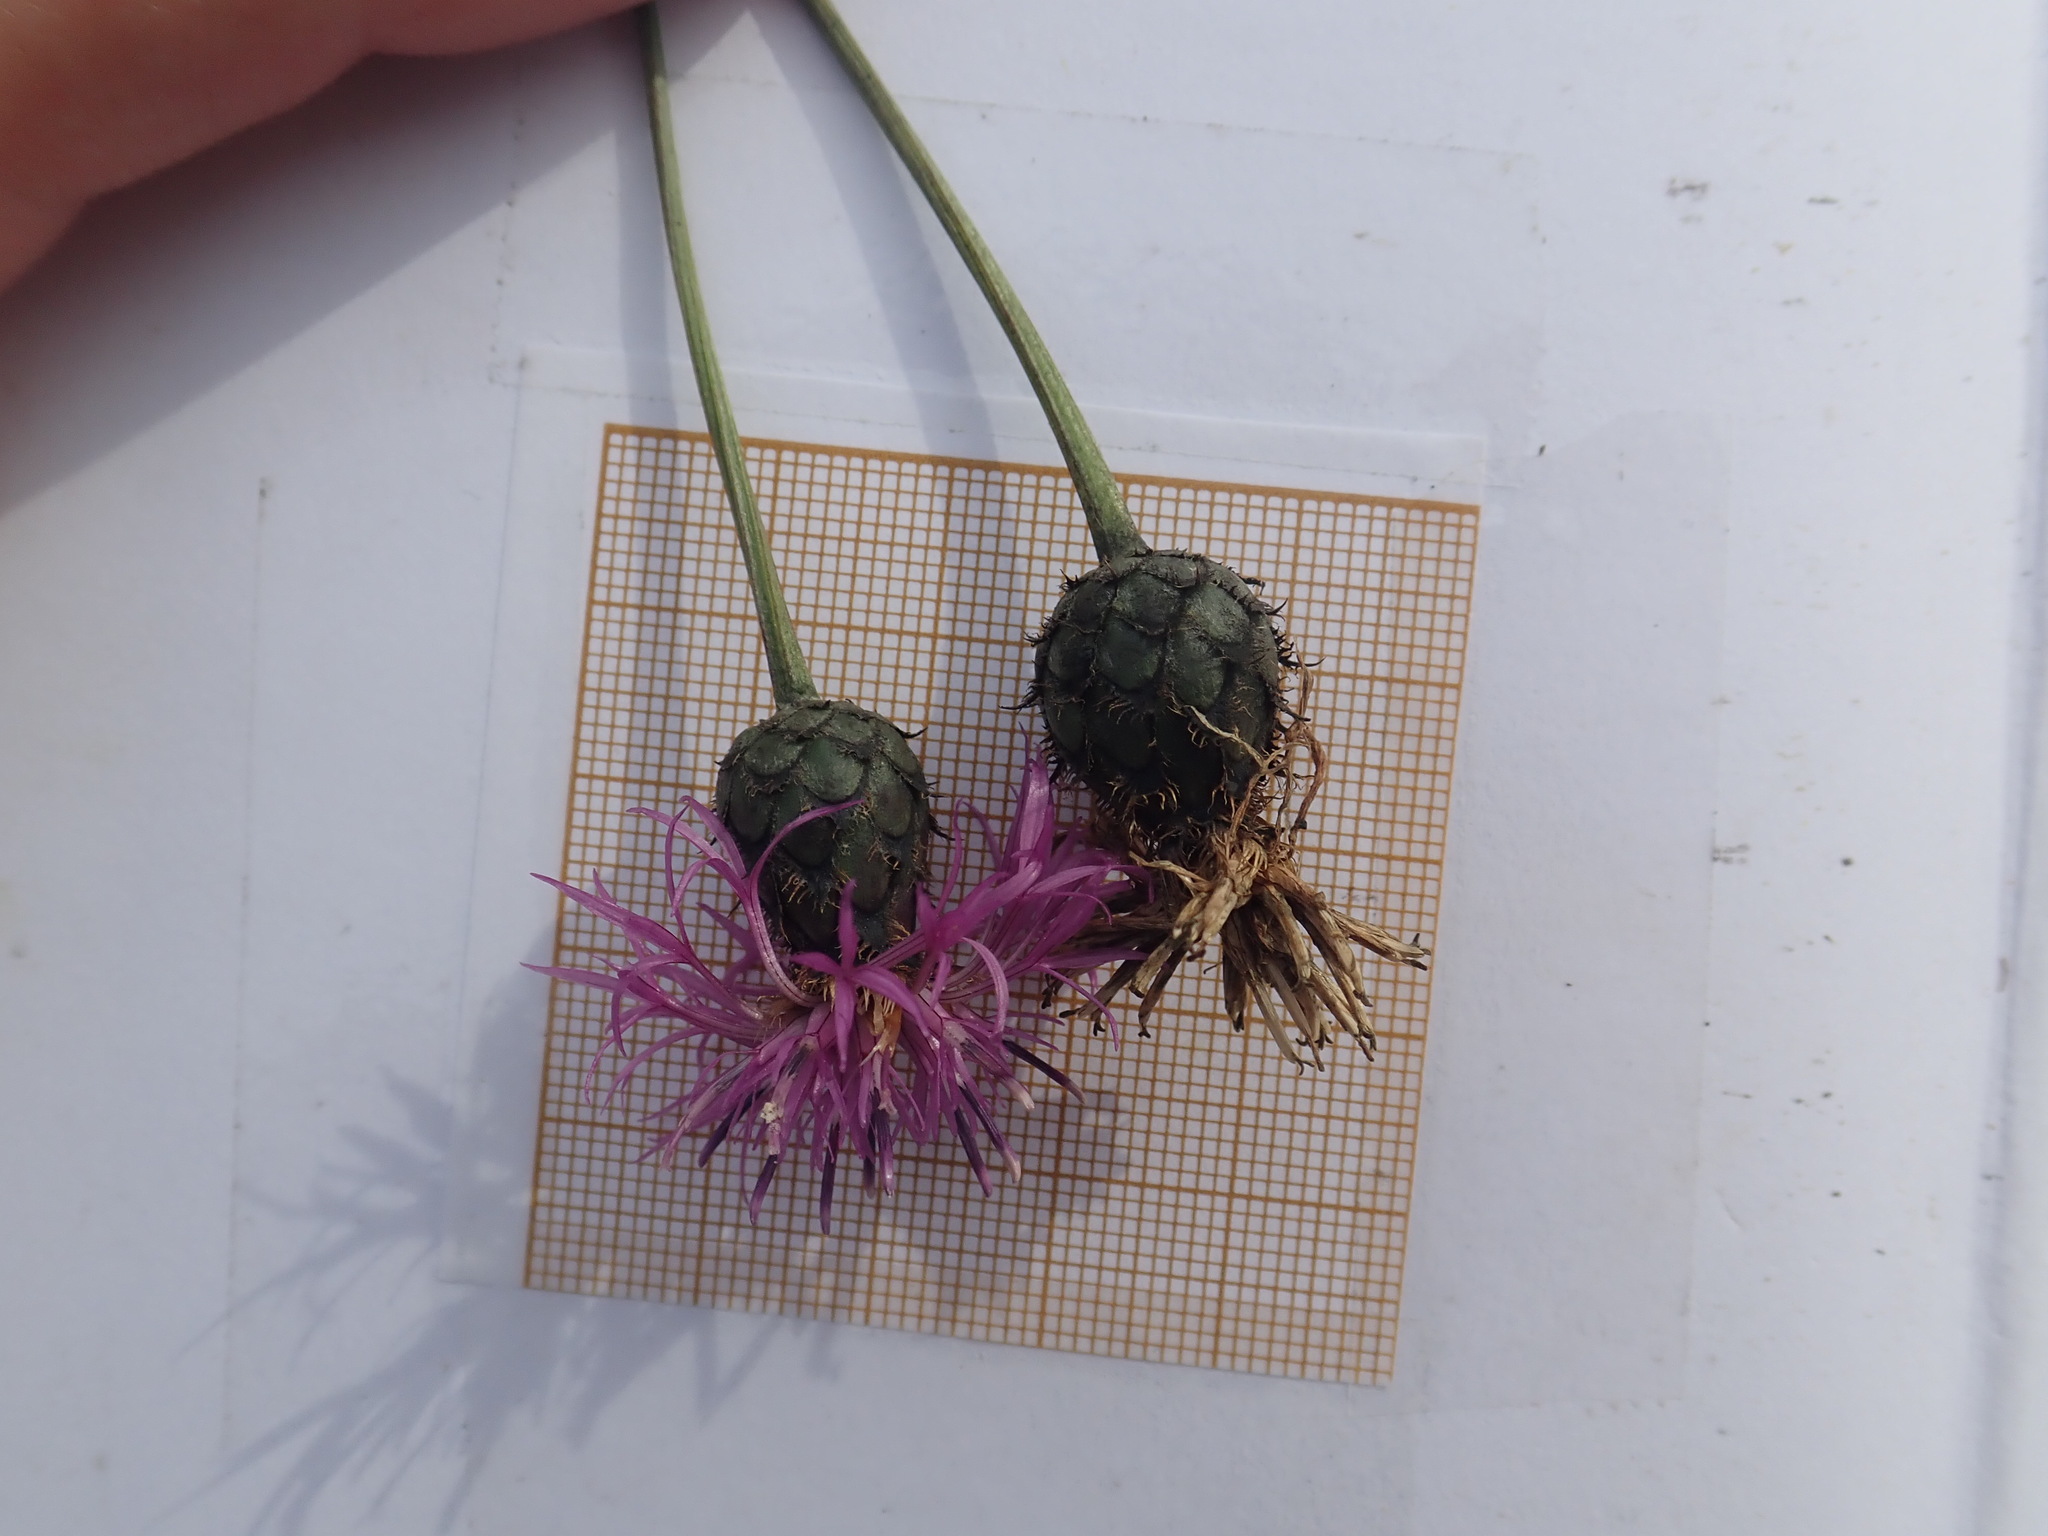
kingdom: Plantae
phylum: Tracheophyta
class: Magnoliopsida
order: Asterales
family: Asteraceae
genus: Centaurea
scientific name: Centaurea scabiosa
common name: Greater knapweed
